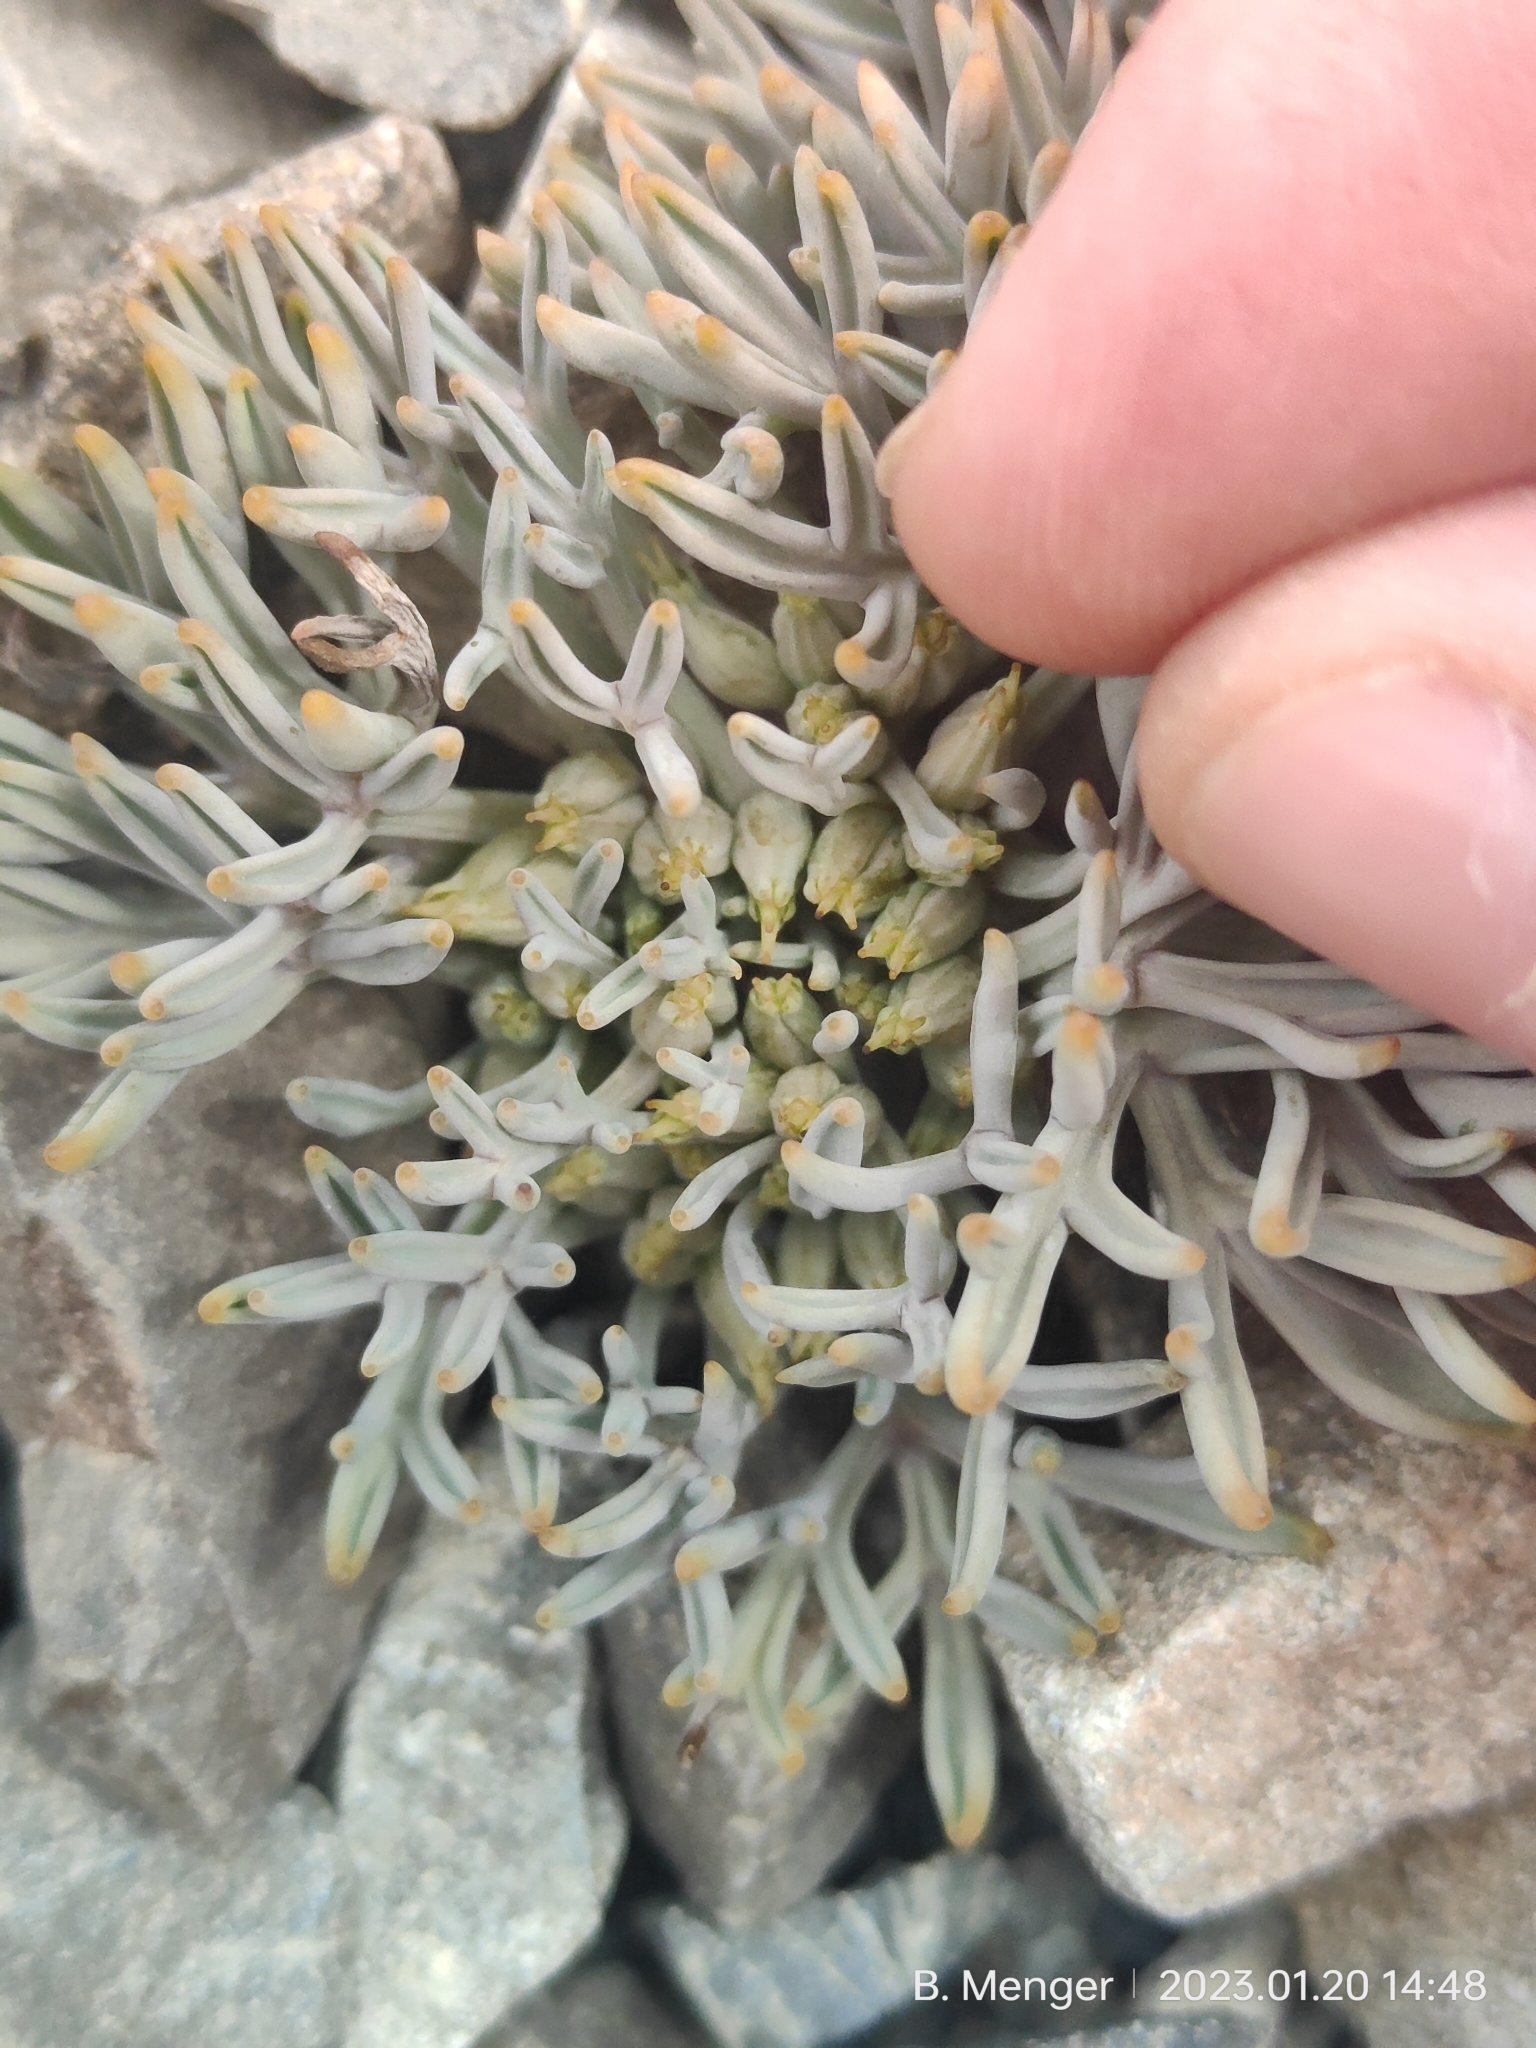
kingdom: Plantae
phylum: Tracheophyta
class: Magnoliopsida
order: Apiales
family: Apiaceae
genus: Lignocarpa
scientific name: Lignocarpa carnosula
